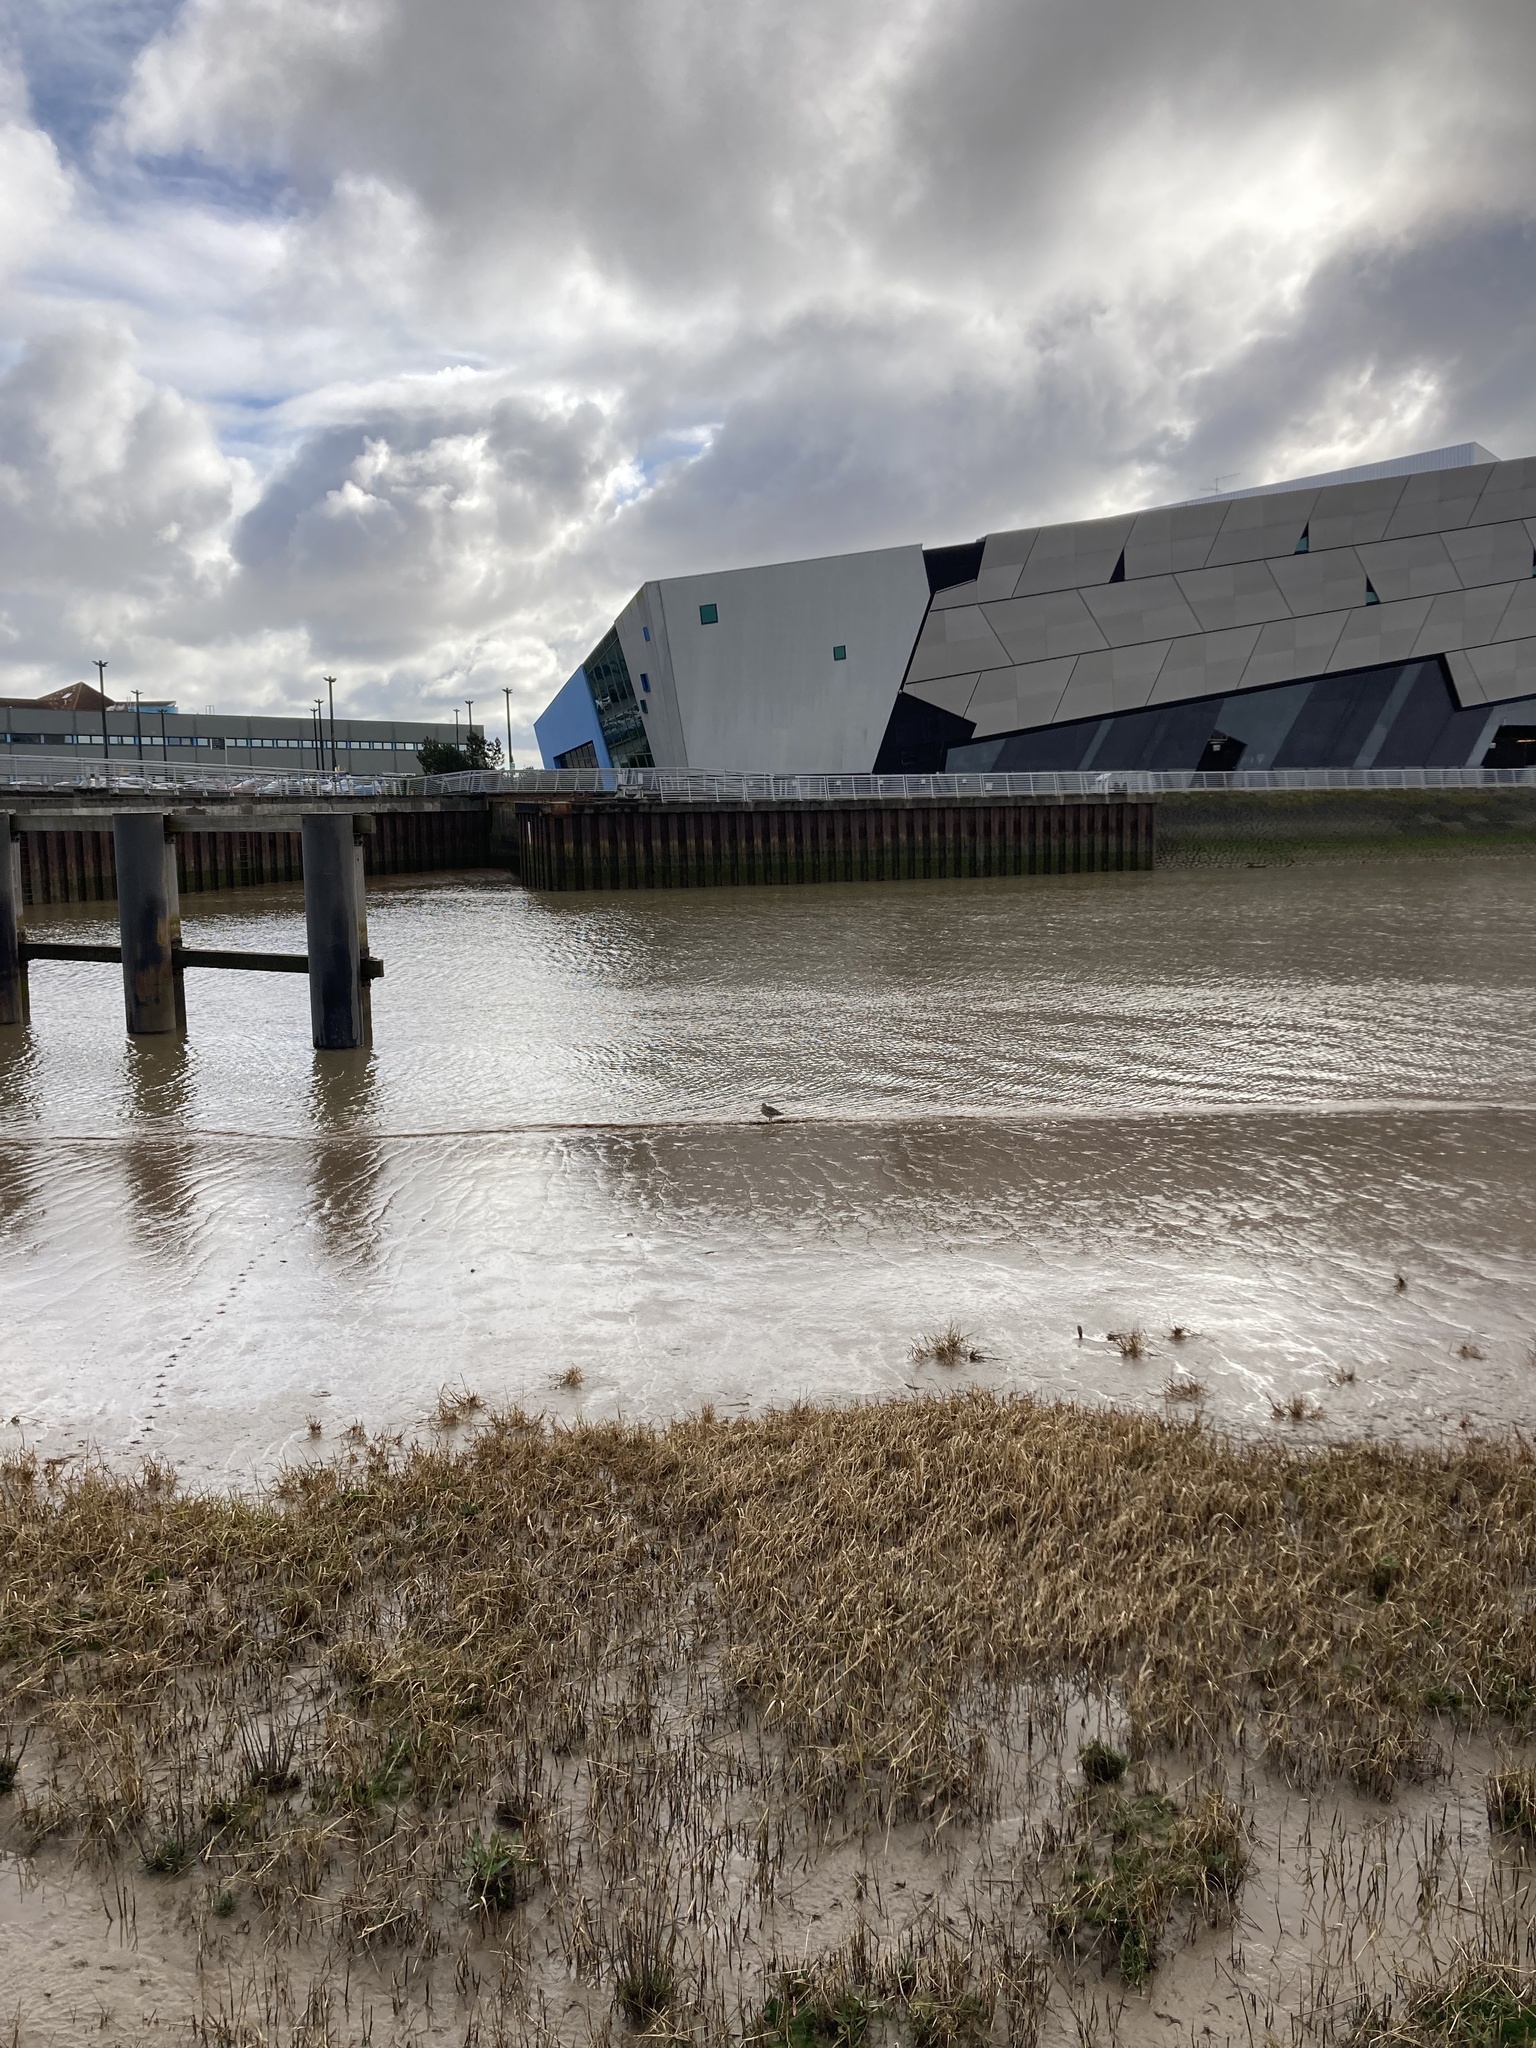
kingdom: Animalia
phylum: Chordata
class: Aves
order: Charadriiformes
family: Scolopacidae
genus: Numenius
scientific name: Numenius arquata
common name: Eurasian curlew
